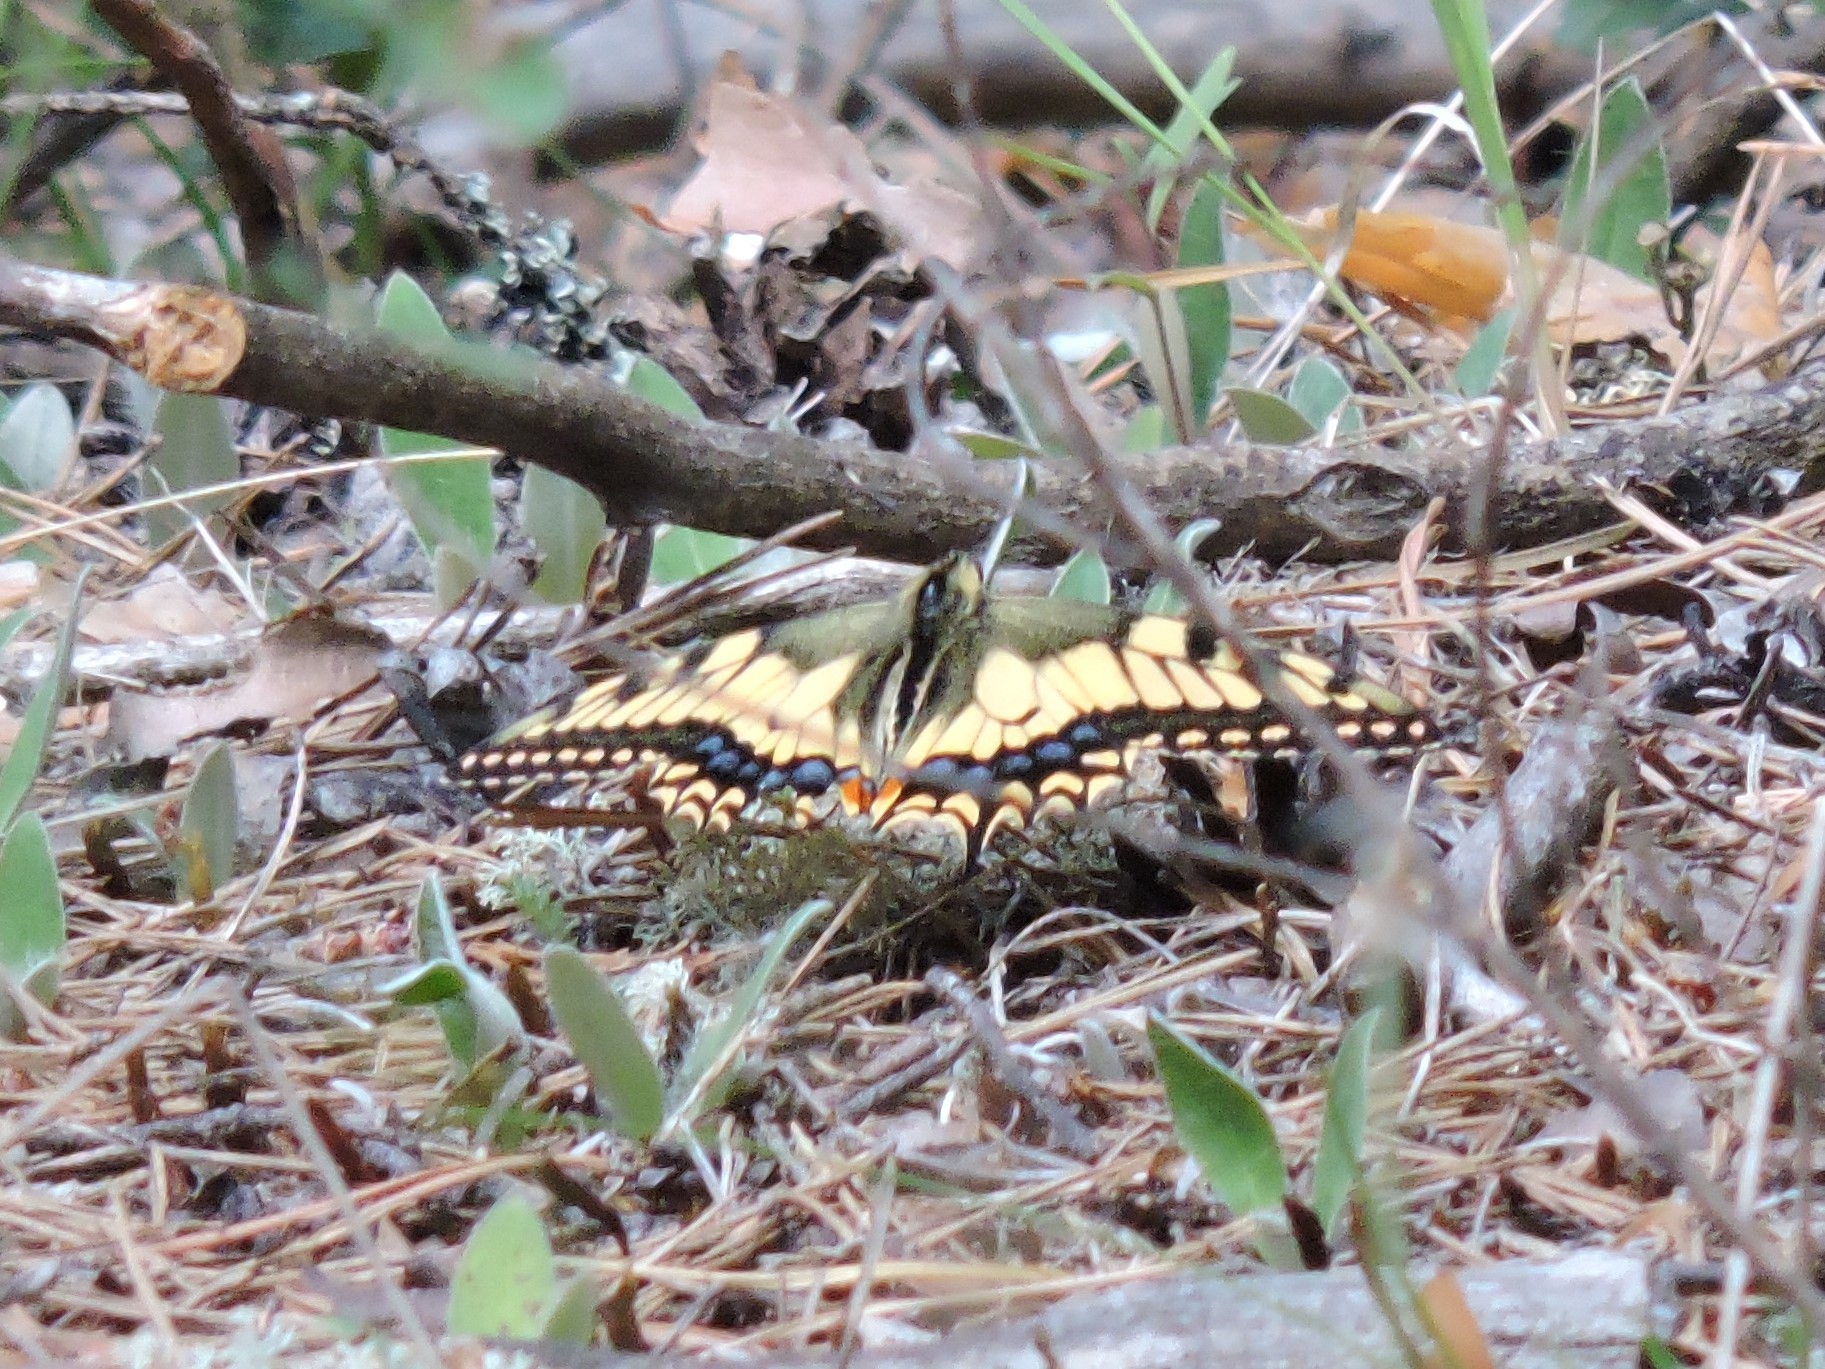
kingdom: Animalia
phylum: Arthropoda
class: Insecta
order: Lepidoptera
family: Papilionidae
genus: Papilio
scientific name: Papilio machaon
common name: Swallowtail
